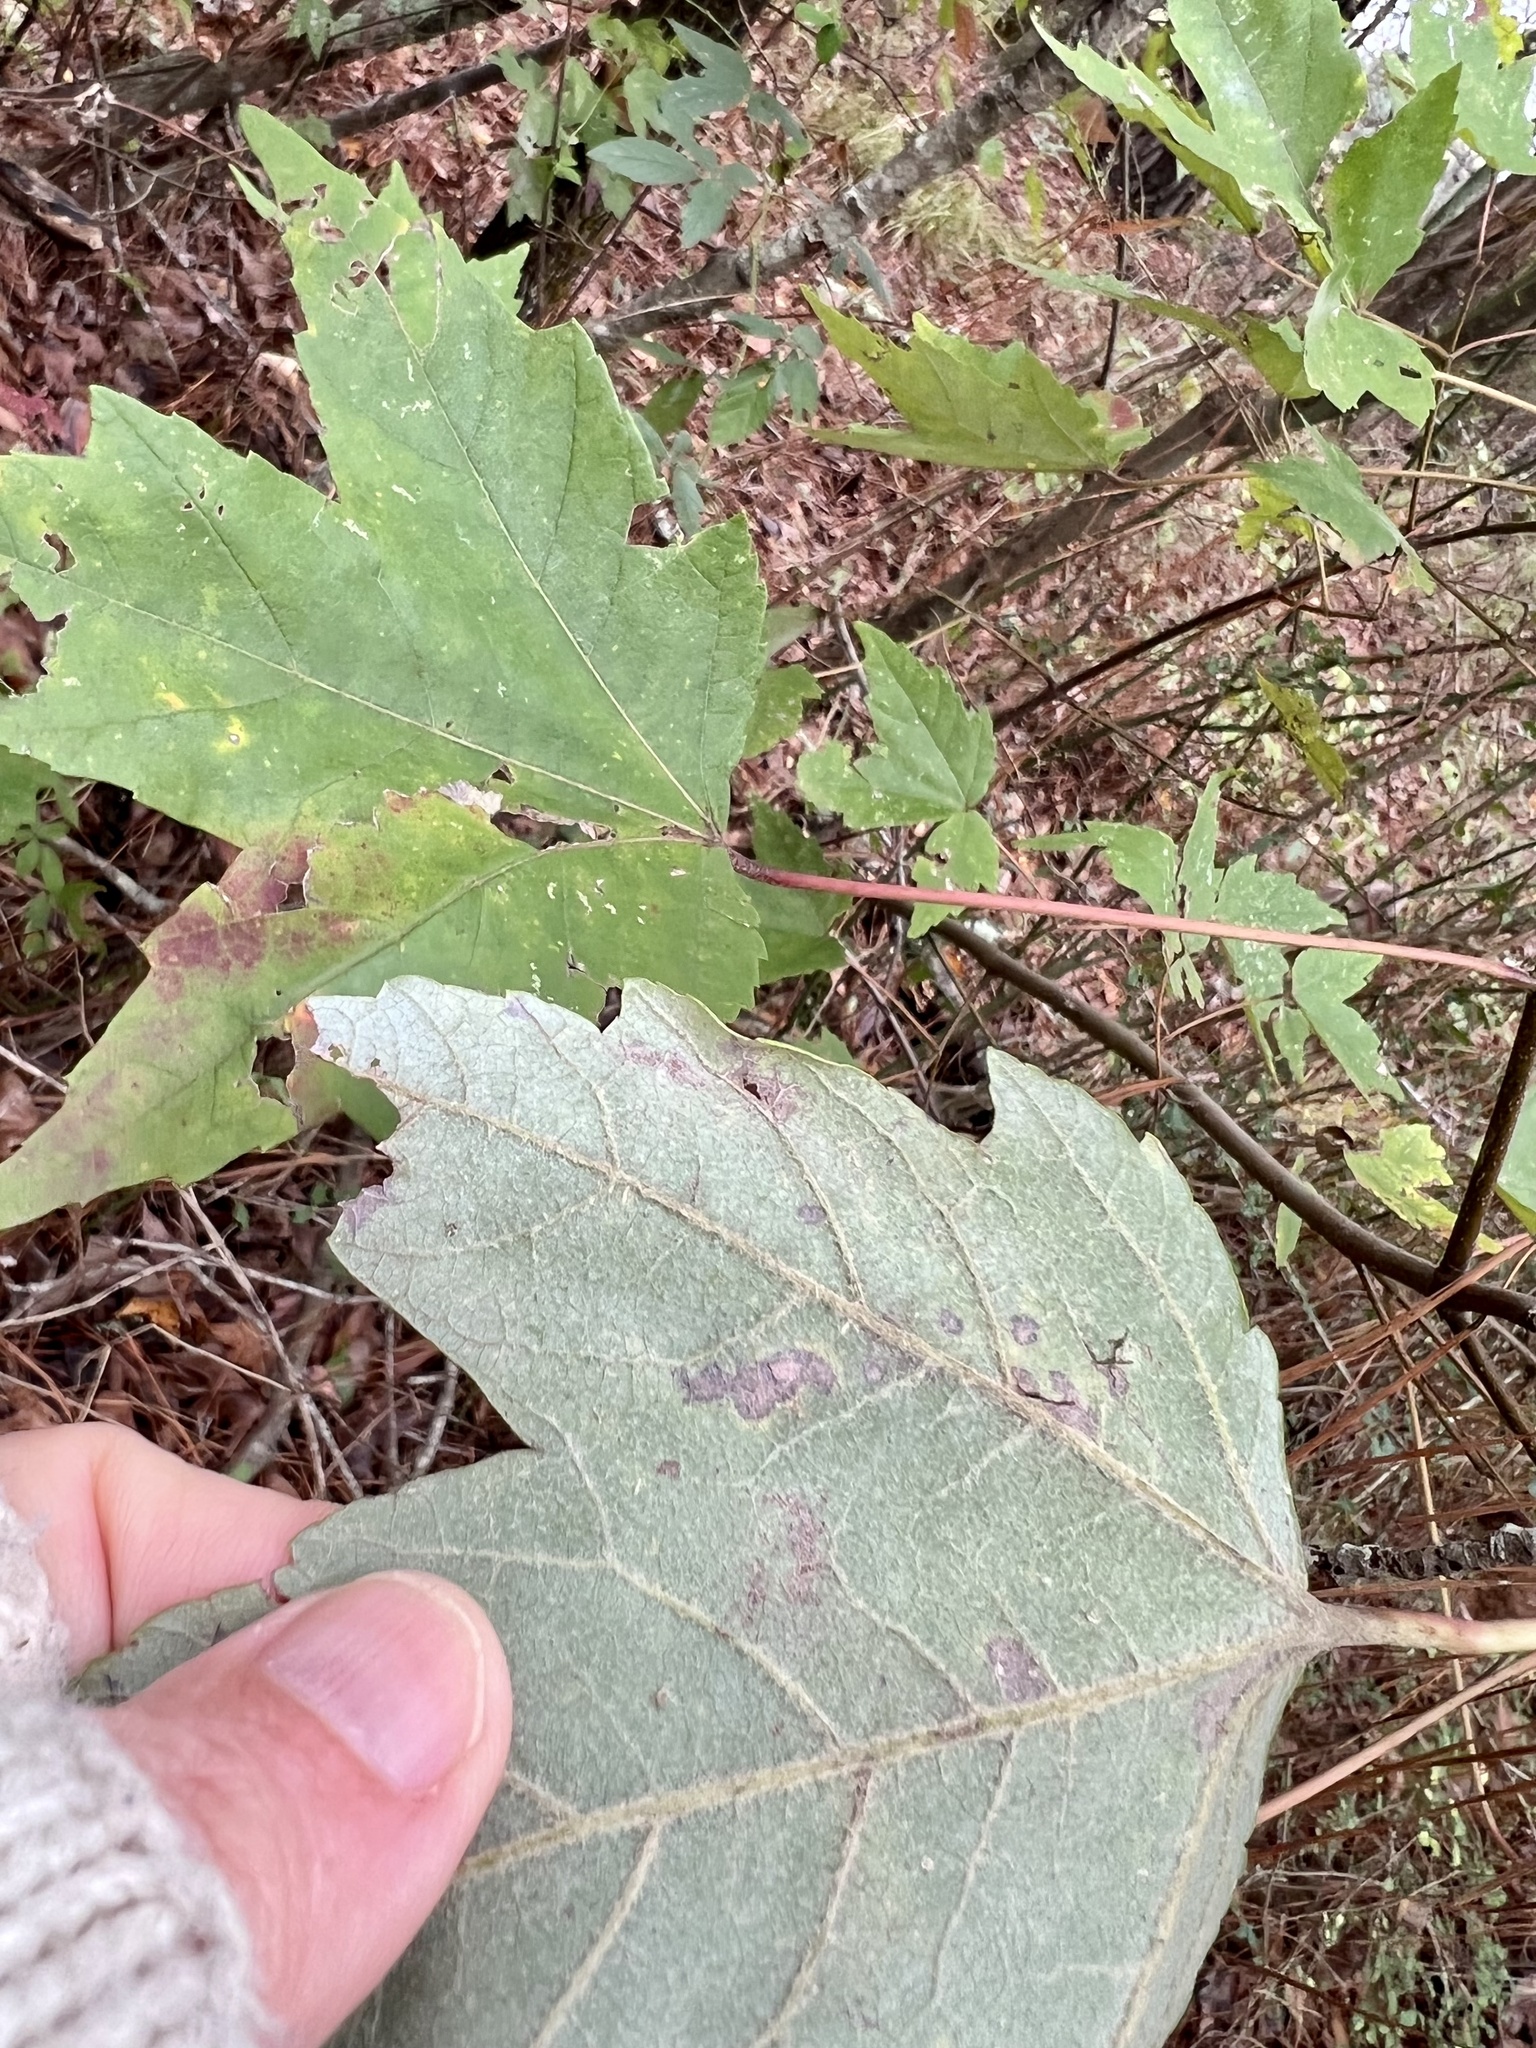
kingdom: Plantae
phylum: Tracheophyta
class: Magnoliopsida
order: Sapindales
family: Sapindaceae
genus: Acer
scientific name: Acer rubrum
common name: Red maple
